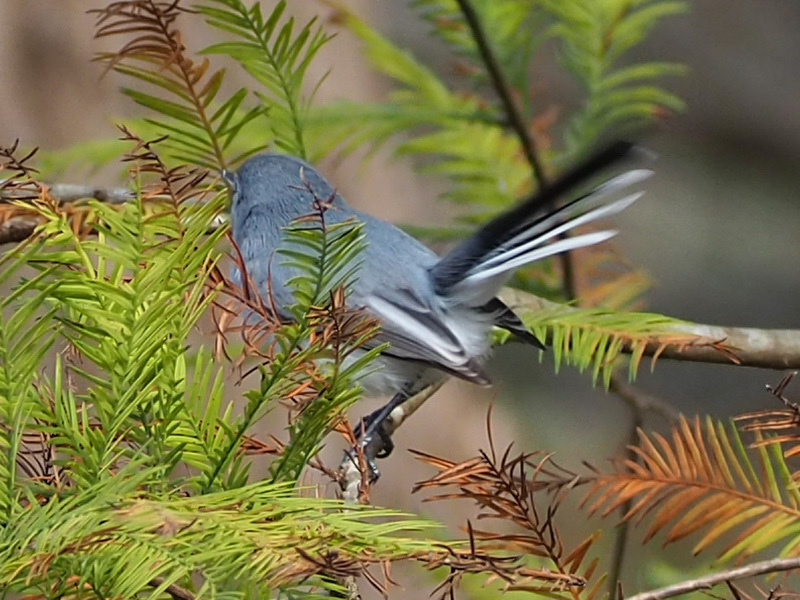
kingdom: Animalia
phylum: Chordata
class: Aves
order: Passeriformes
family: Polioptilidae
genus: Polioptila
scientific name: Polioptila caerulea
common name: Blue-gray gnatcatcher
